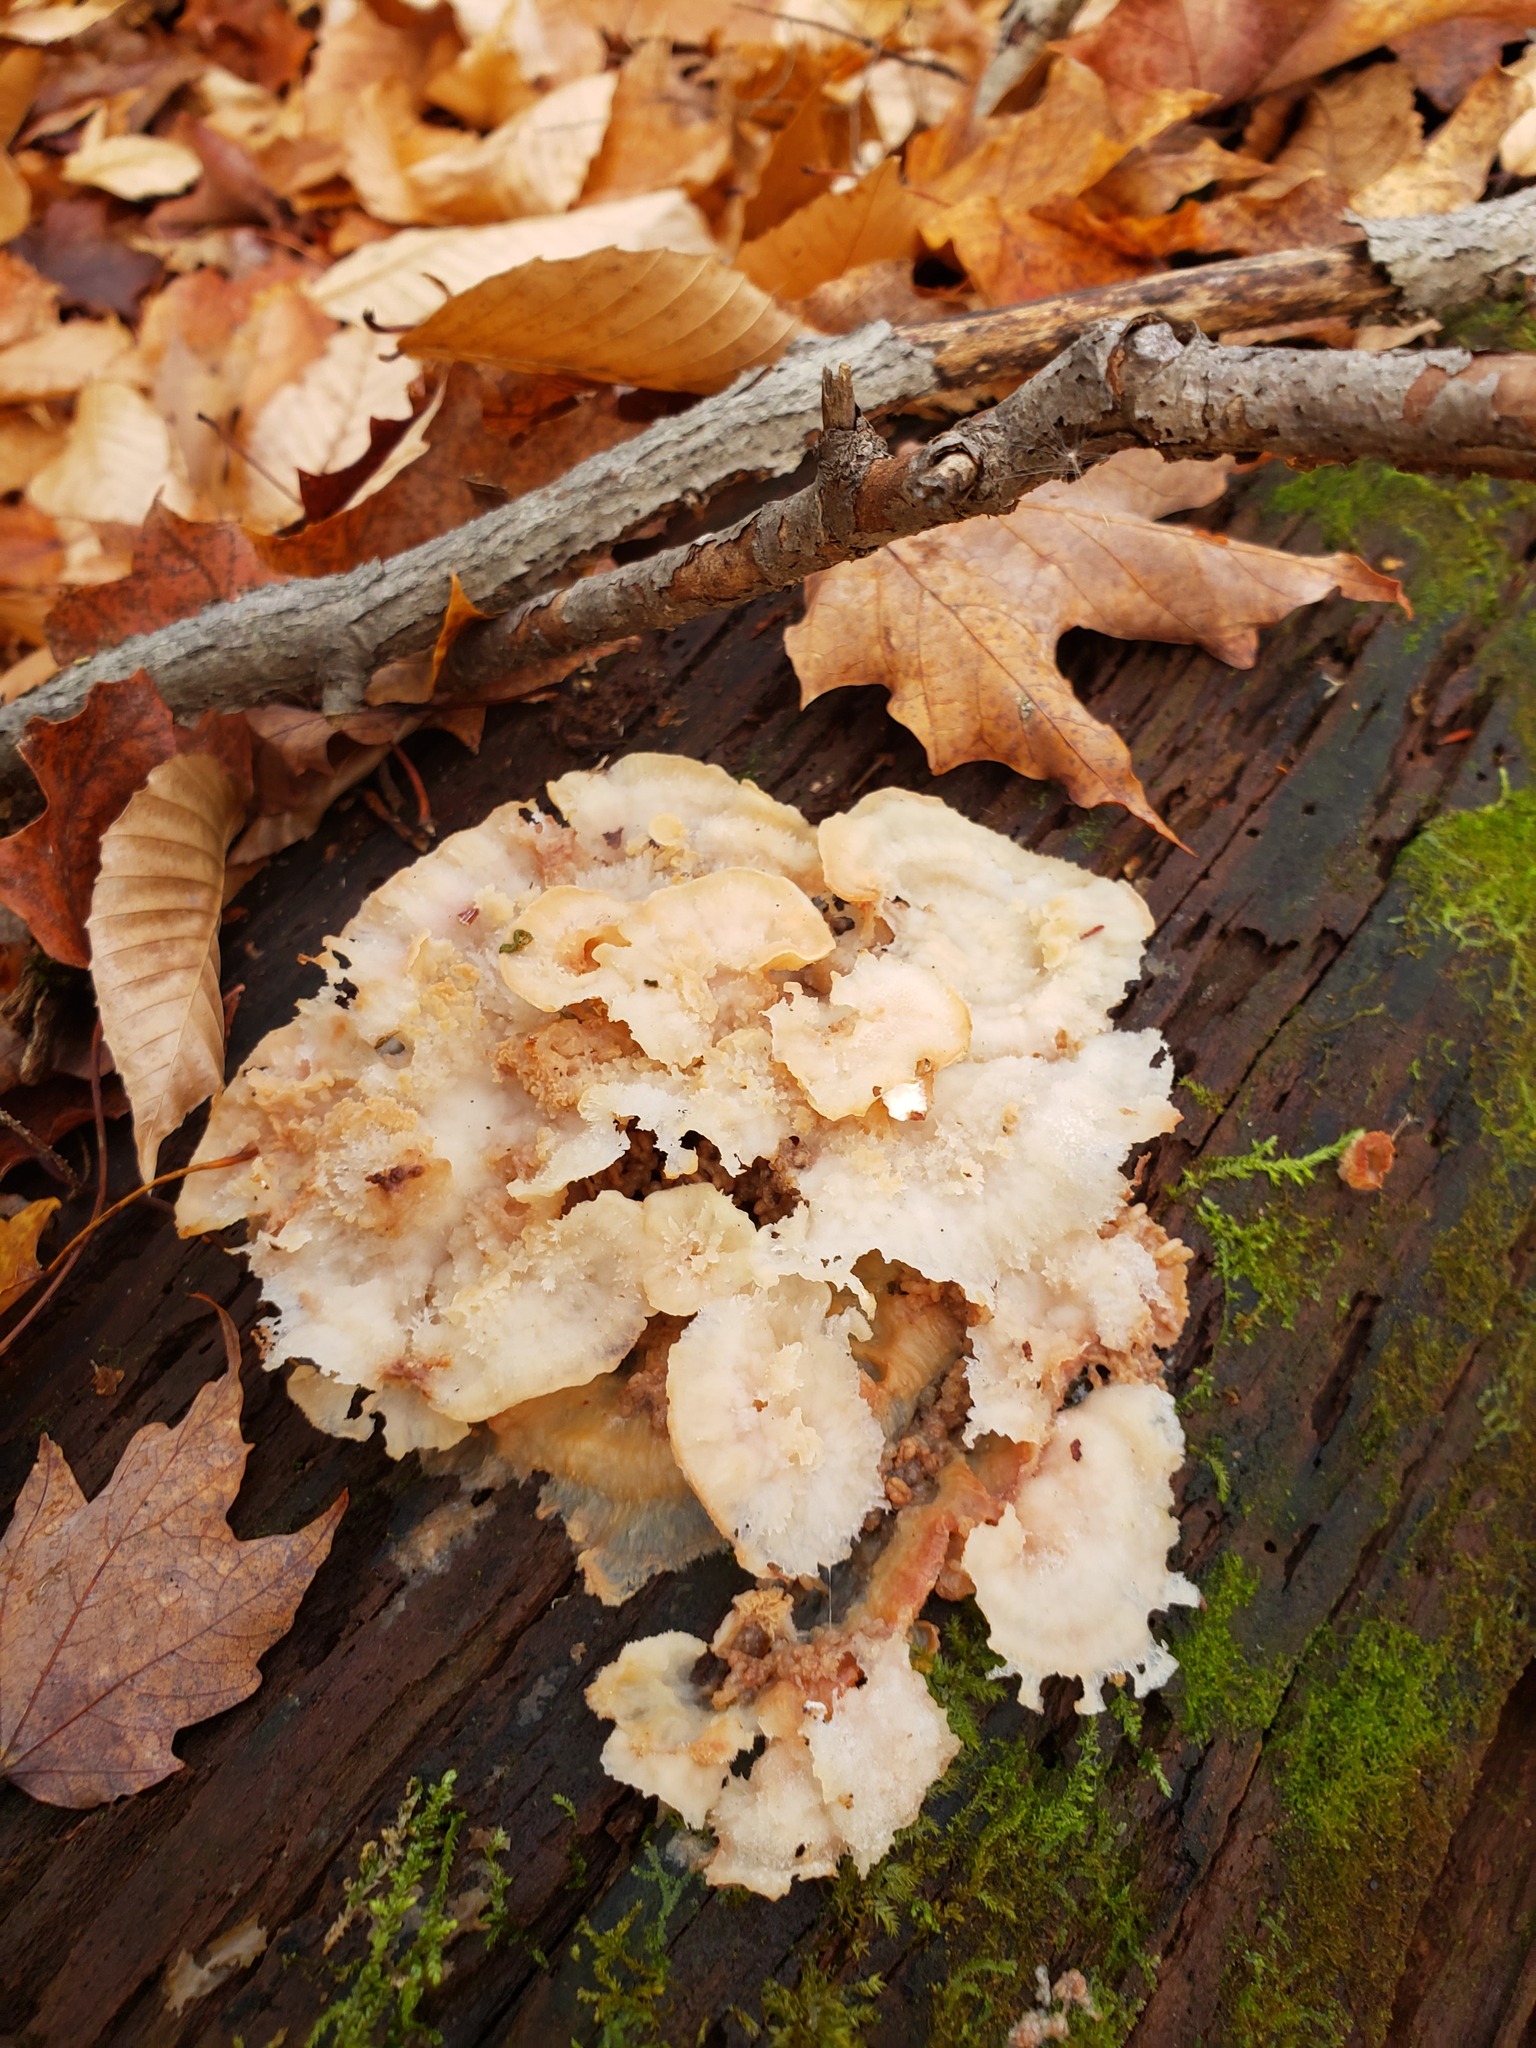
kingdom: Fungi
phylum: Basidiomycota
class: Agaricomycetes
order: Polyporales
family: Meruliaceae
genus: Phlebia
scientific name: Phlebia tremellosa
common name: Jelly rot
